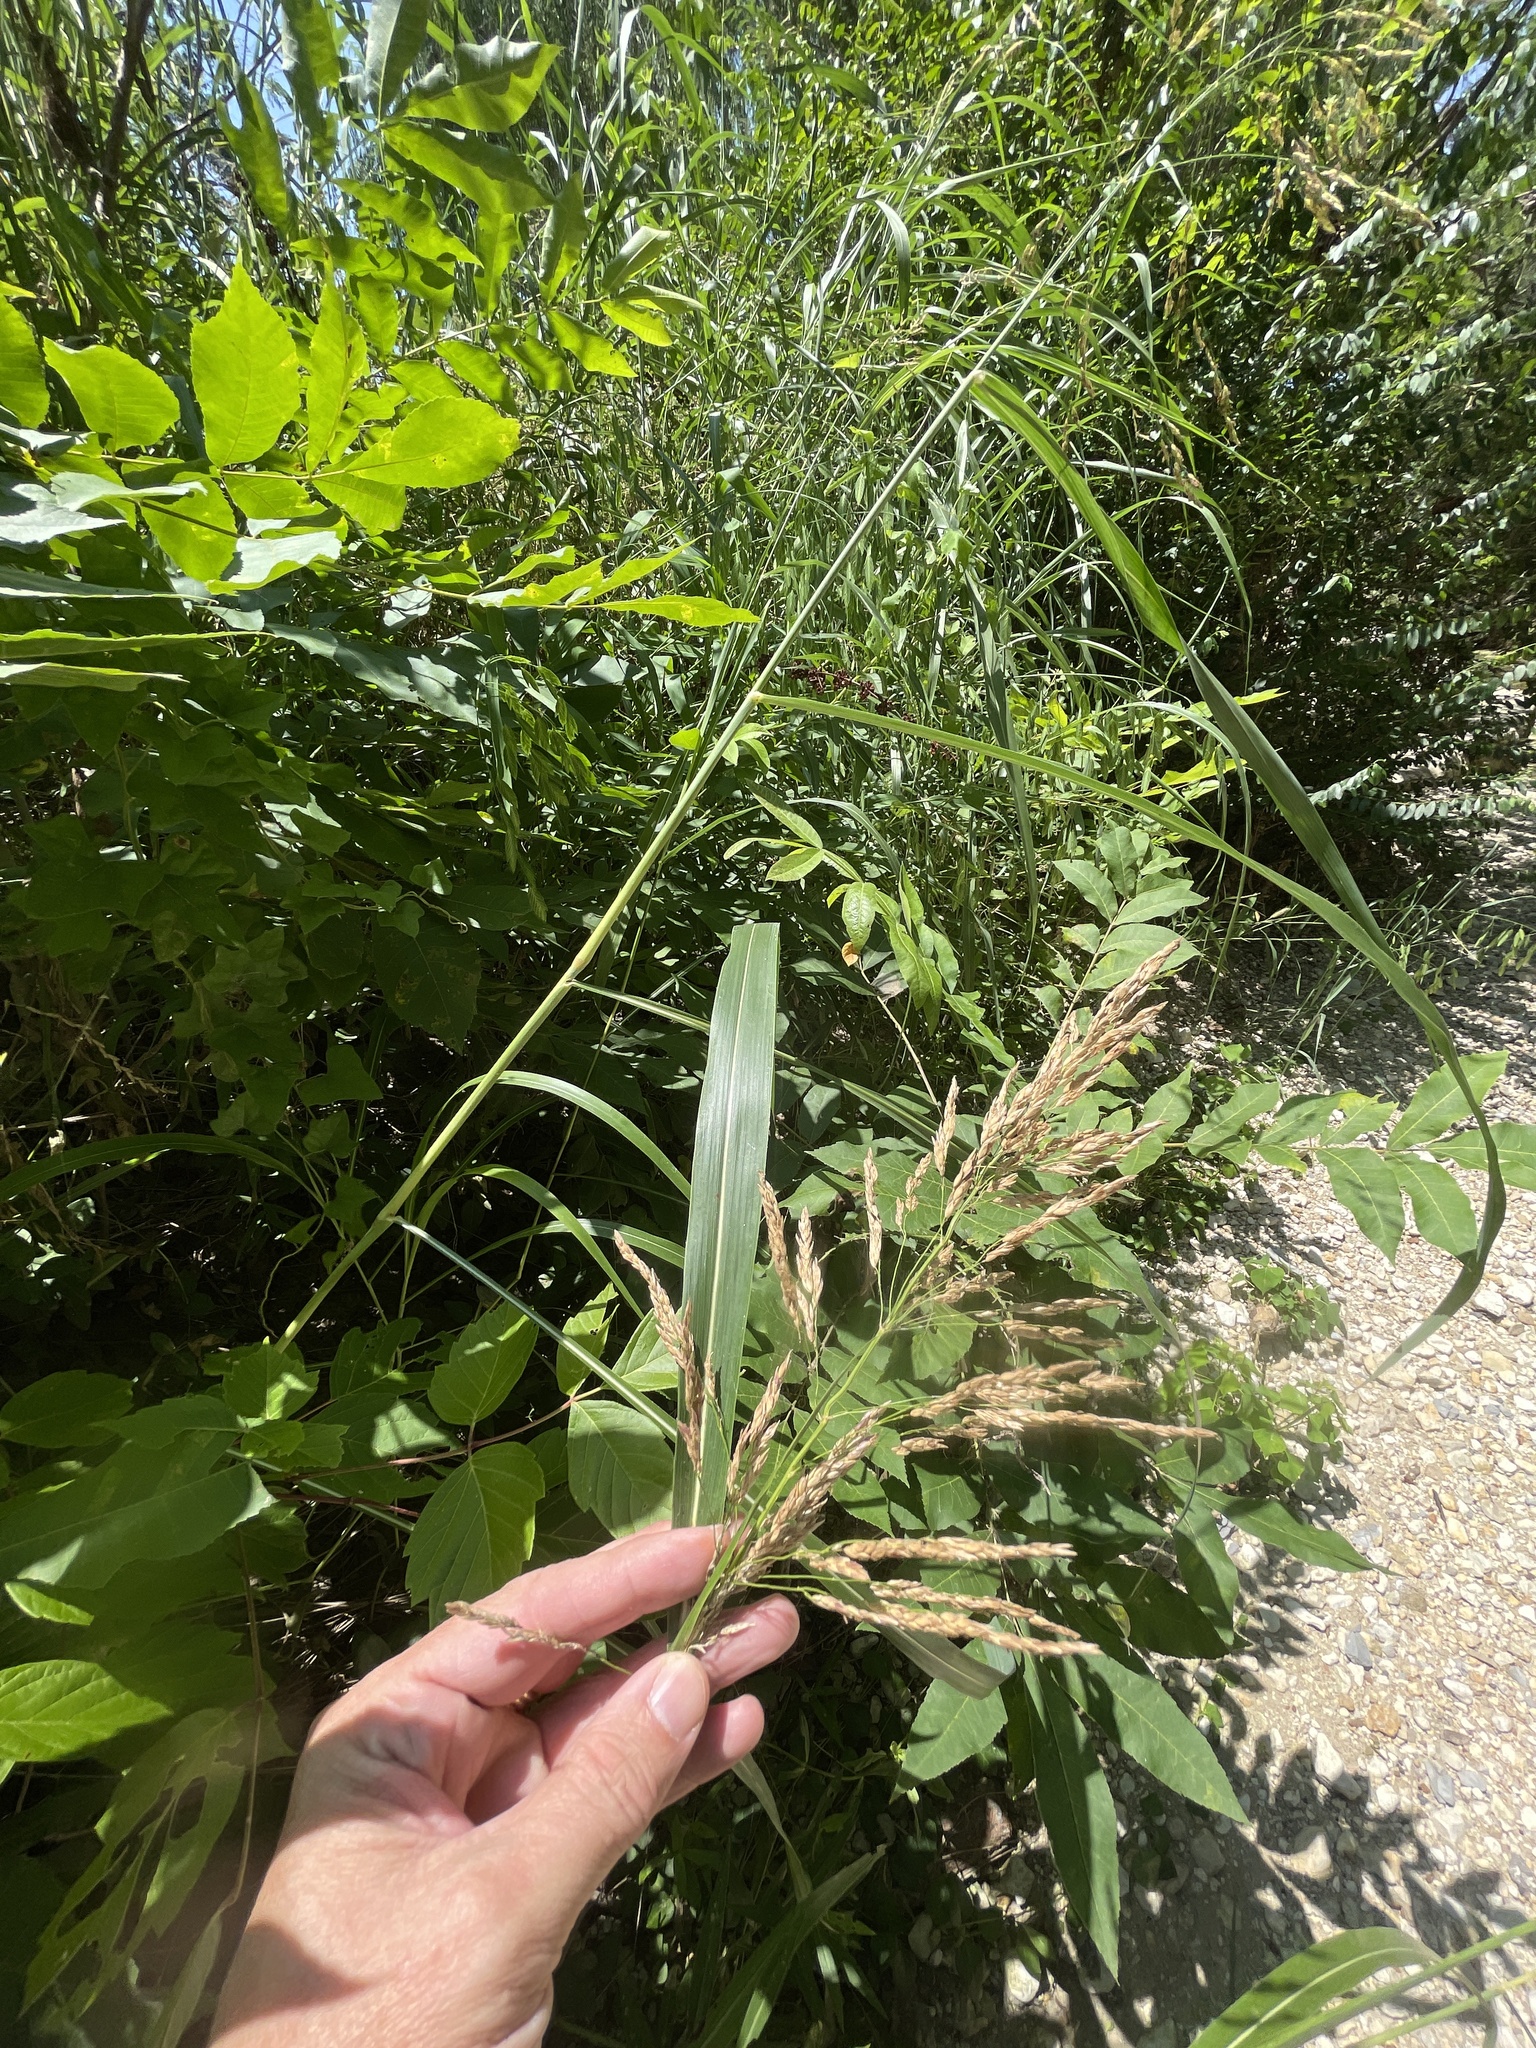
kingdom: Plantae
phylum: Tracheophyta
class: Liliopsida
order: Poales
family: Poaceae
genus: Sorghum
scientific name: Sorghum halepense
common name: Johnson-grass
